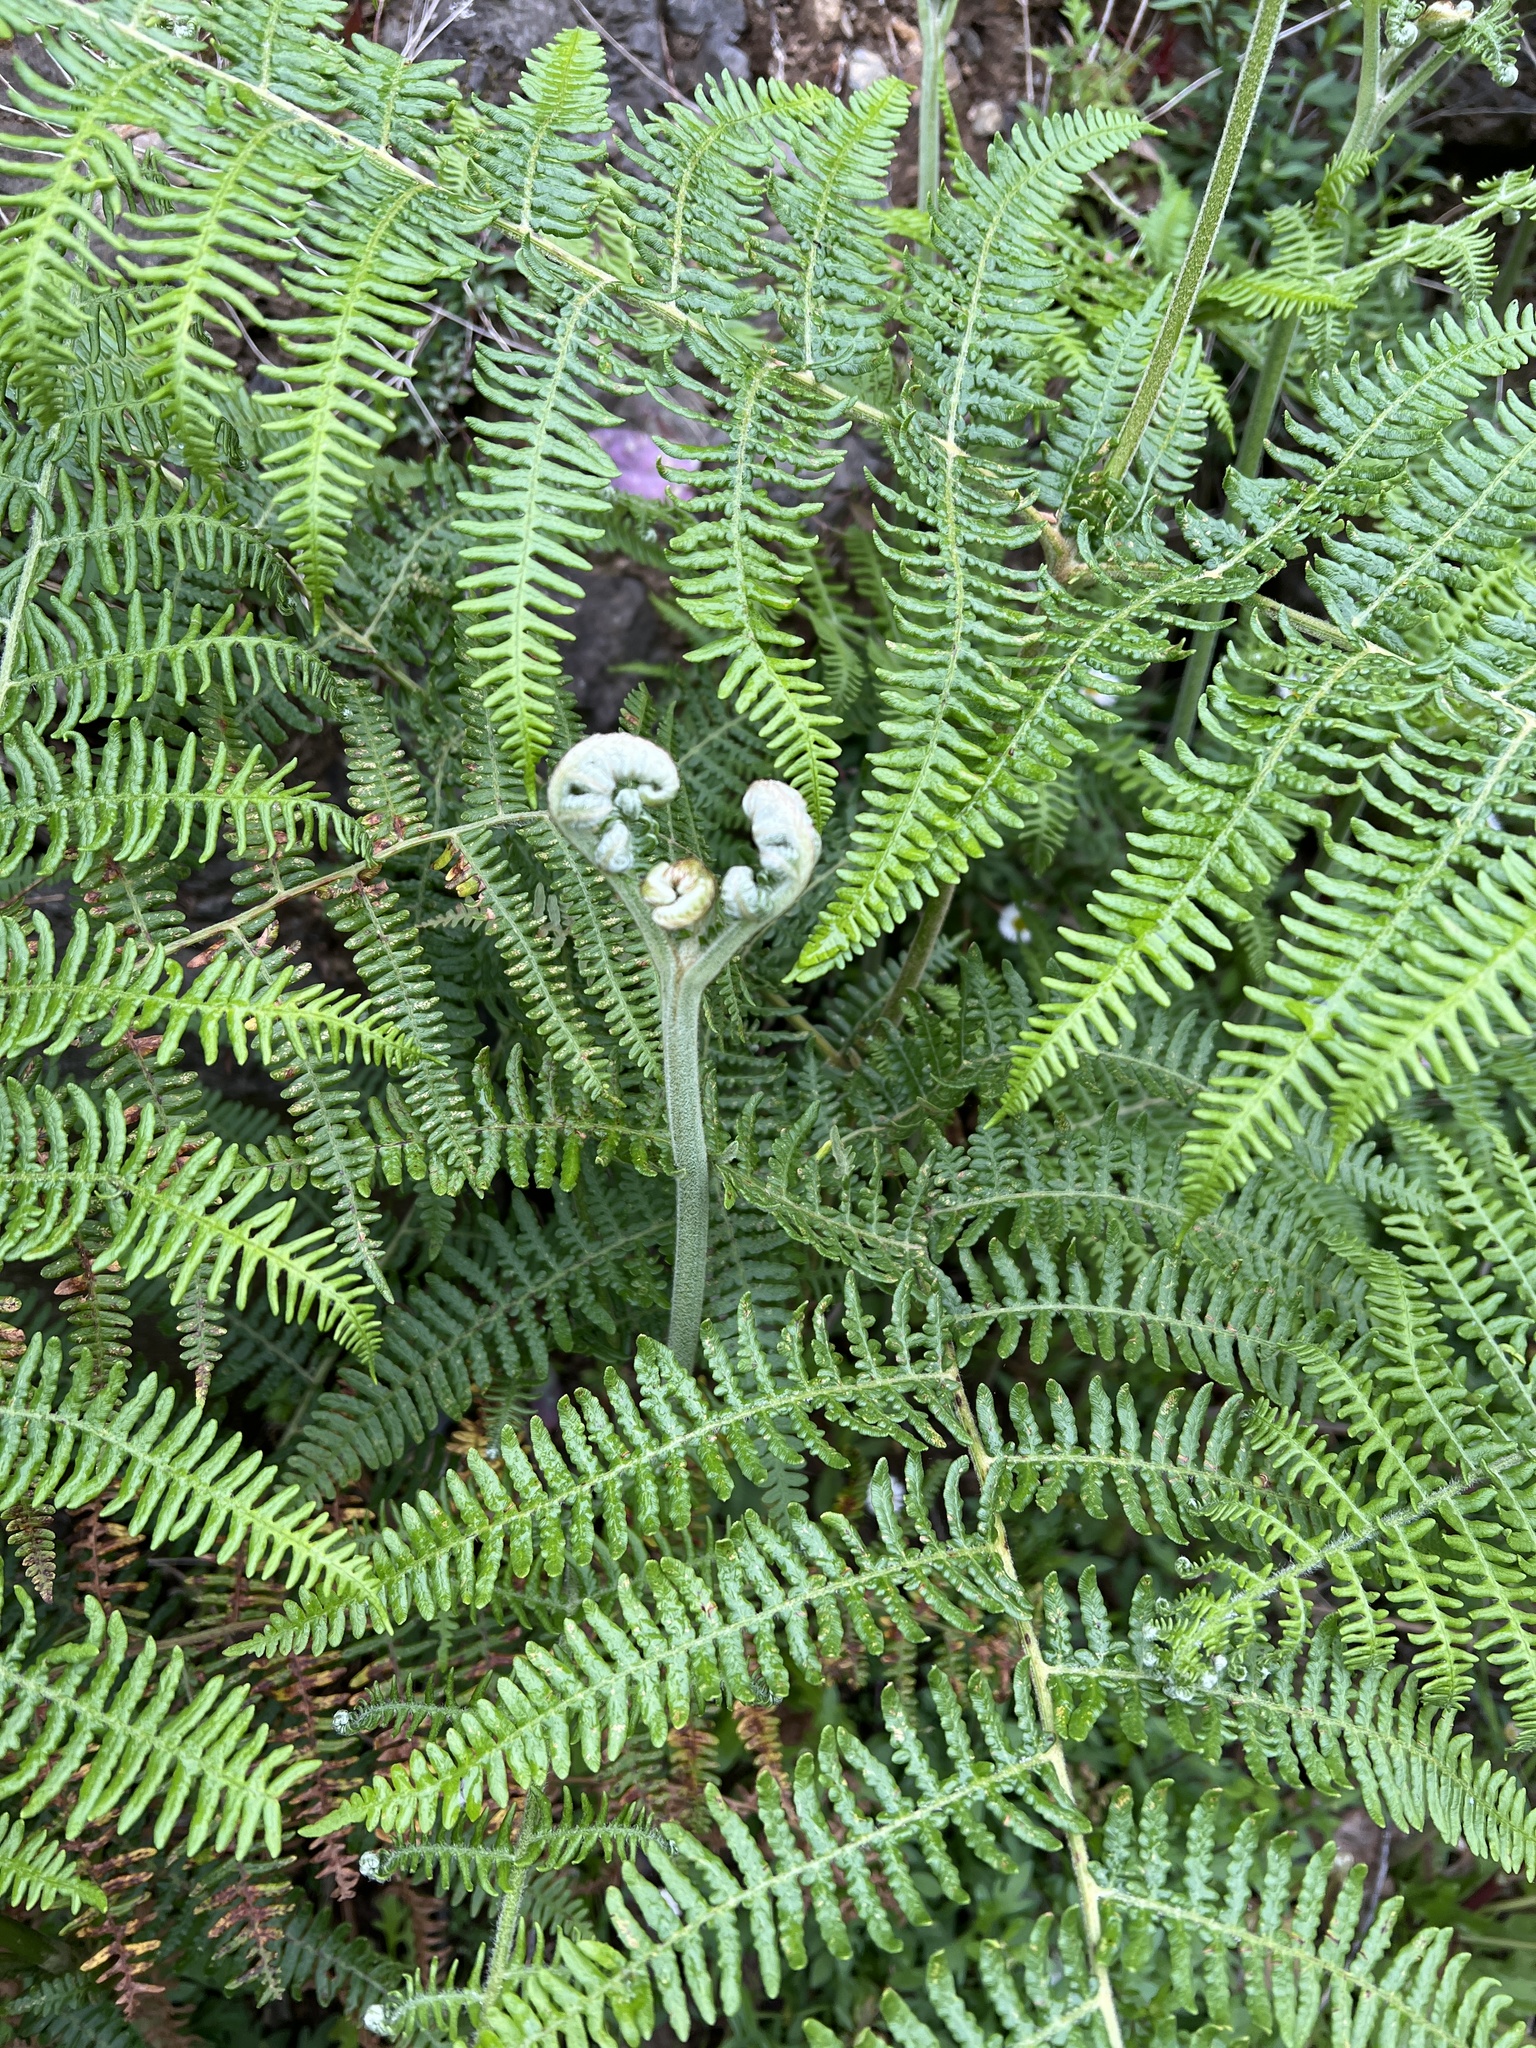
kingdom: Plantae
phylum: Tracheophyta
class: Polypodiopsida
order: Polypodiales
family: Dennstaedtiaceae
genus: Pteridium
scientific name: Pteridium aquilinum
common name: Bracken
